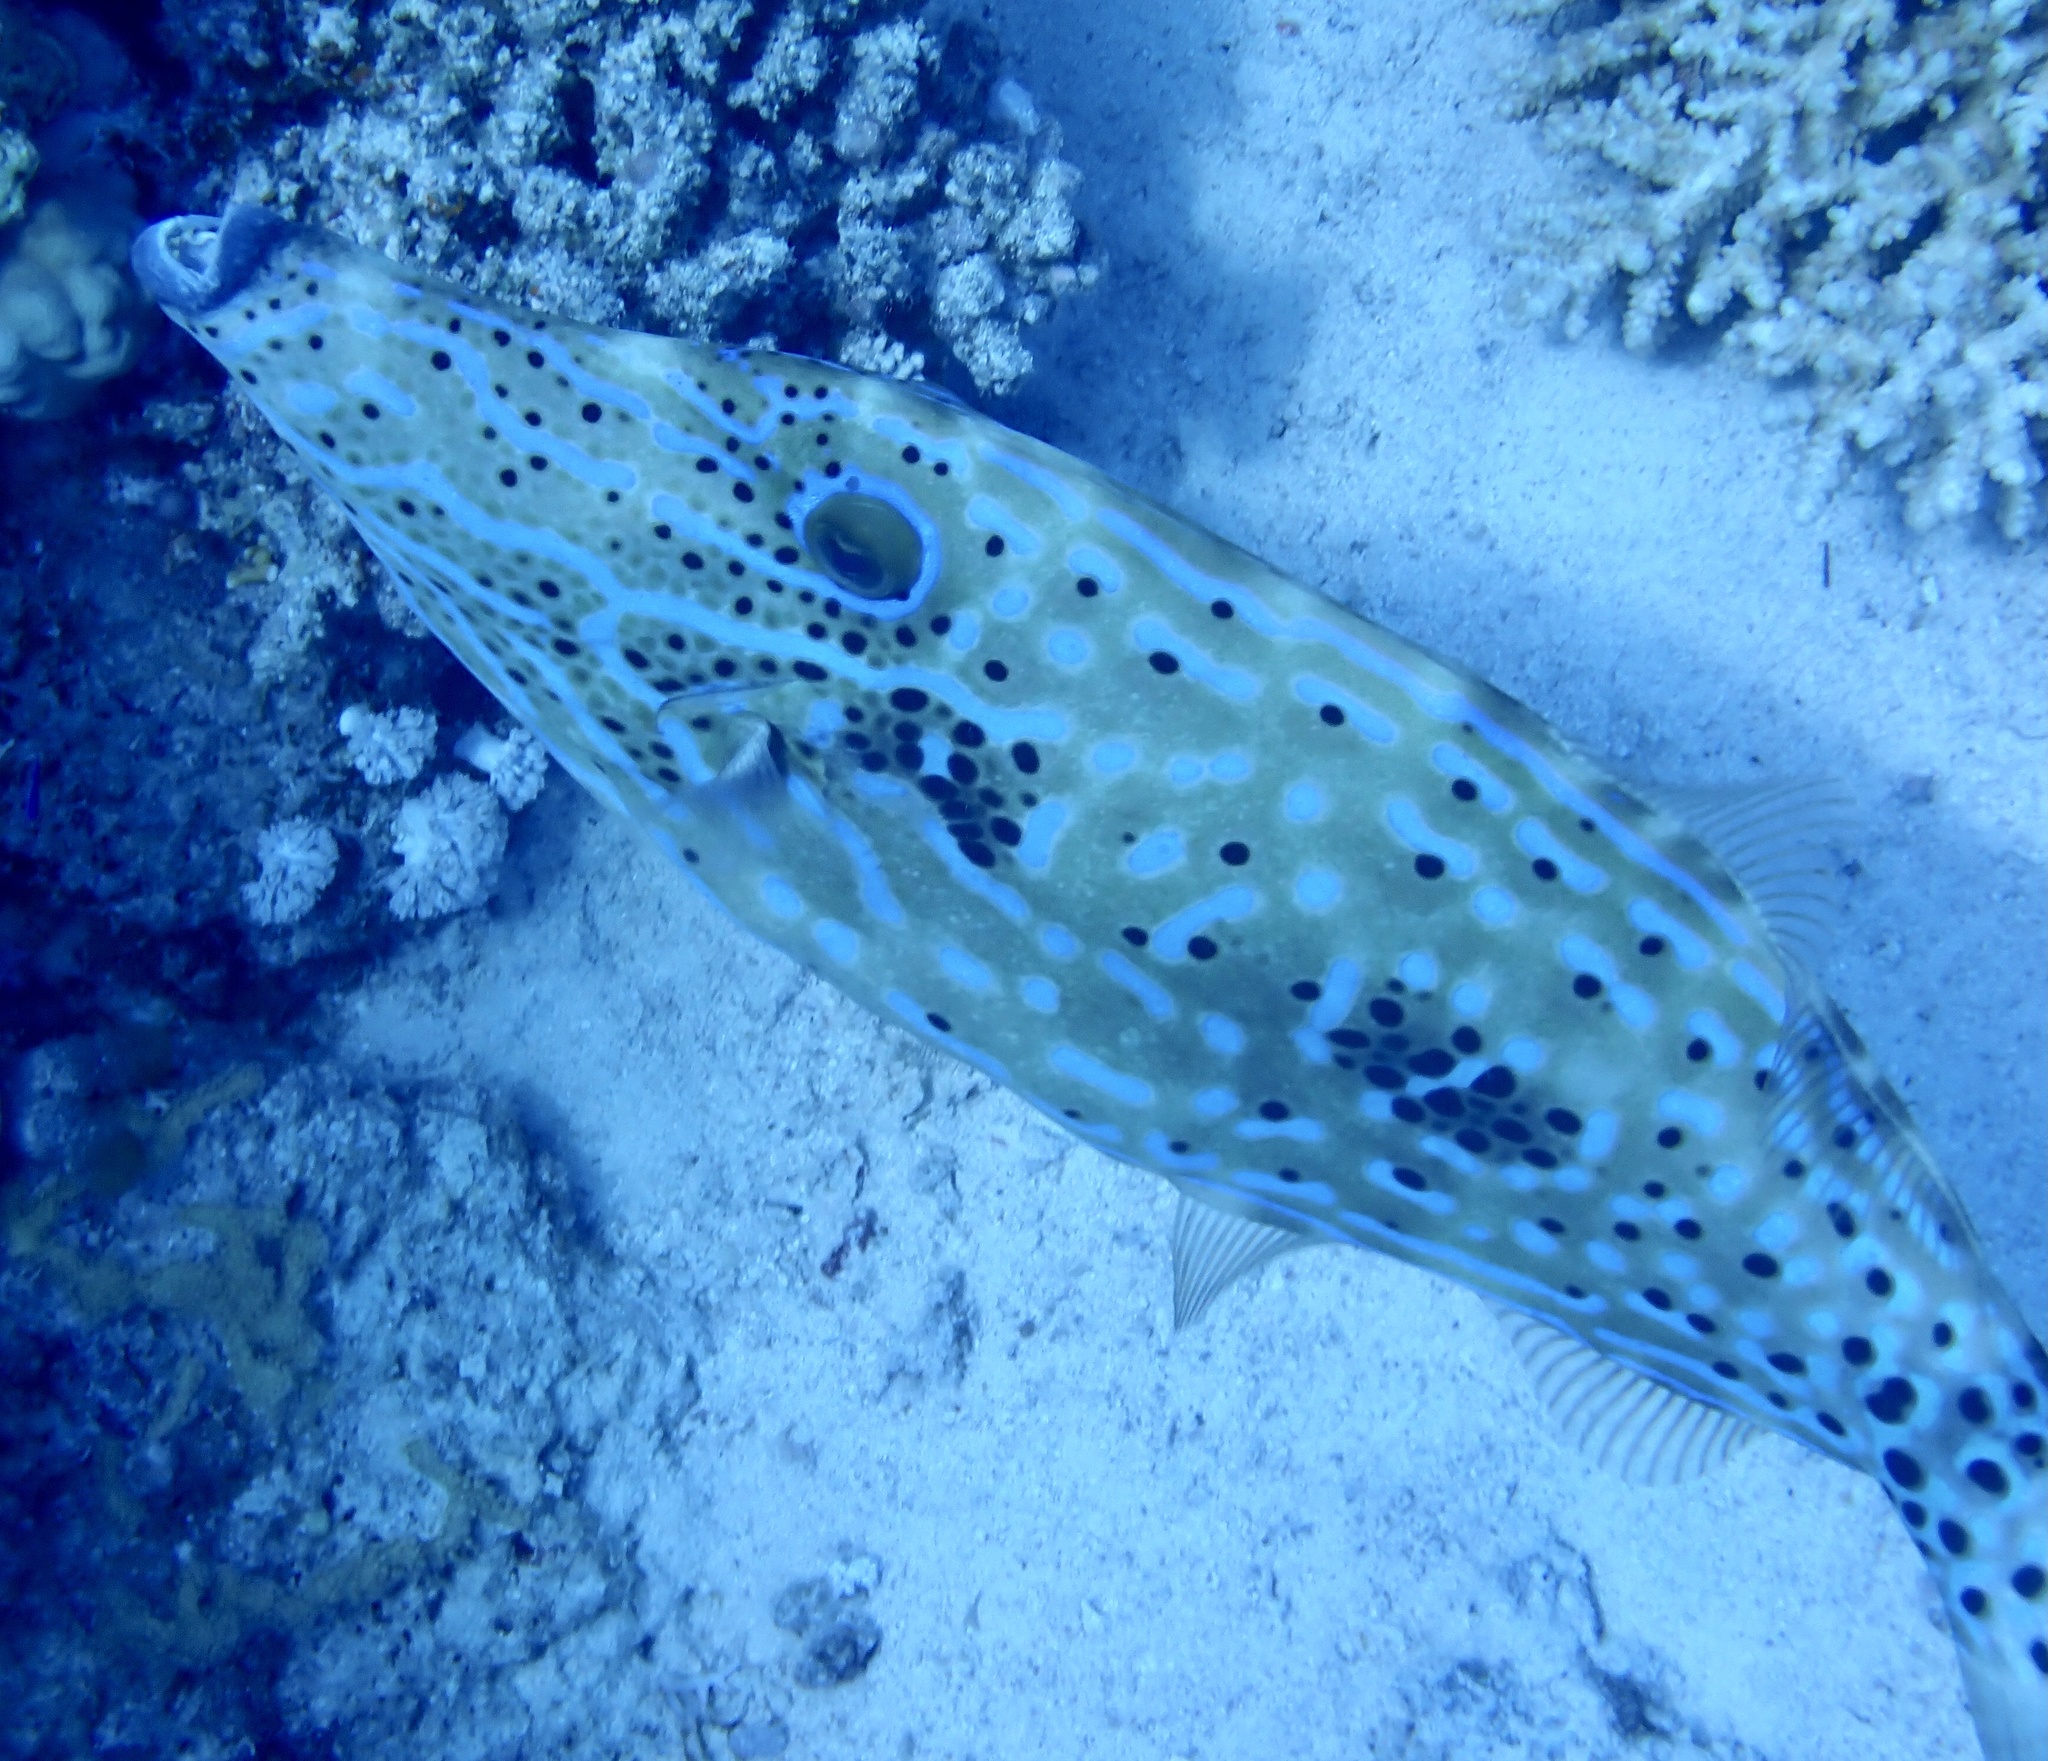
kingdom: Animalia
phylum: Chordata
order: Tetraodontiformes
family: Monacanthidae
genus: Aluterus
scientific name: Aluterus scriptus
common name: Scribbled leatherjacket filefish
